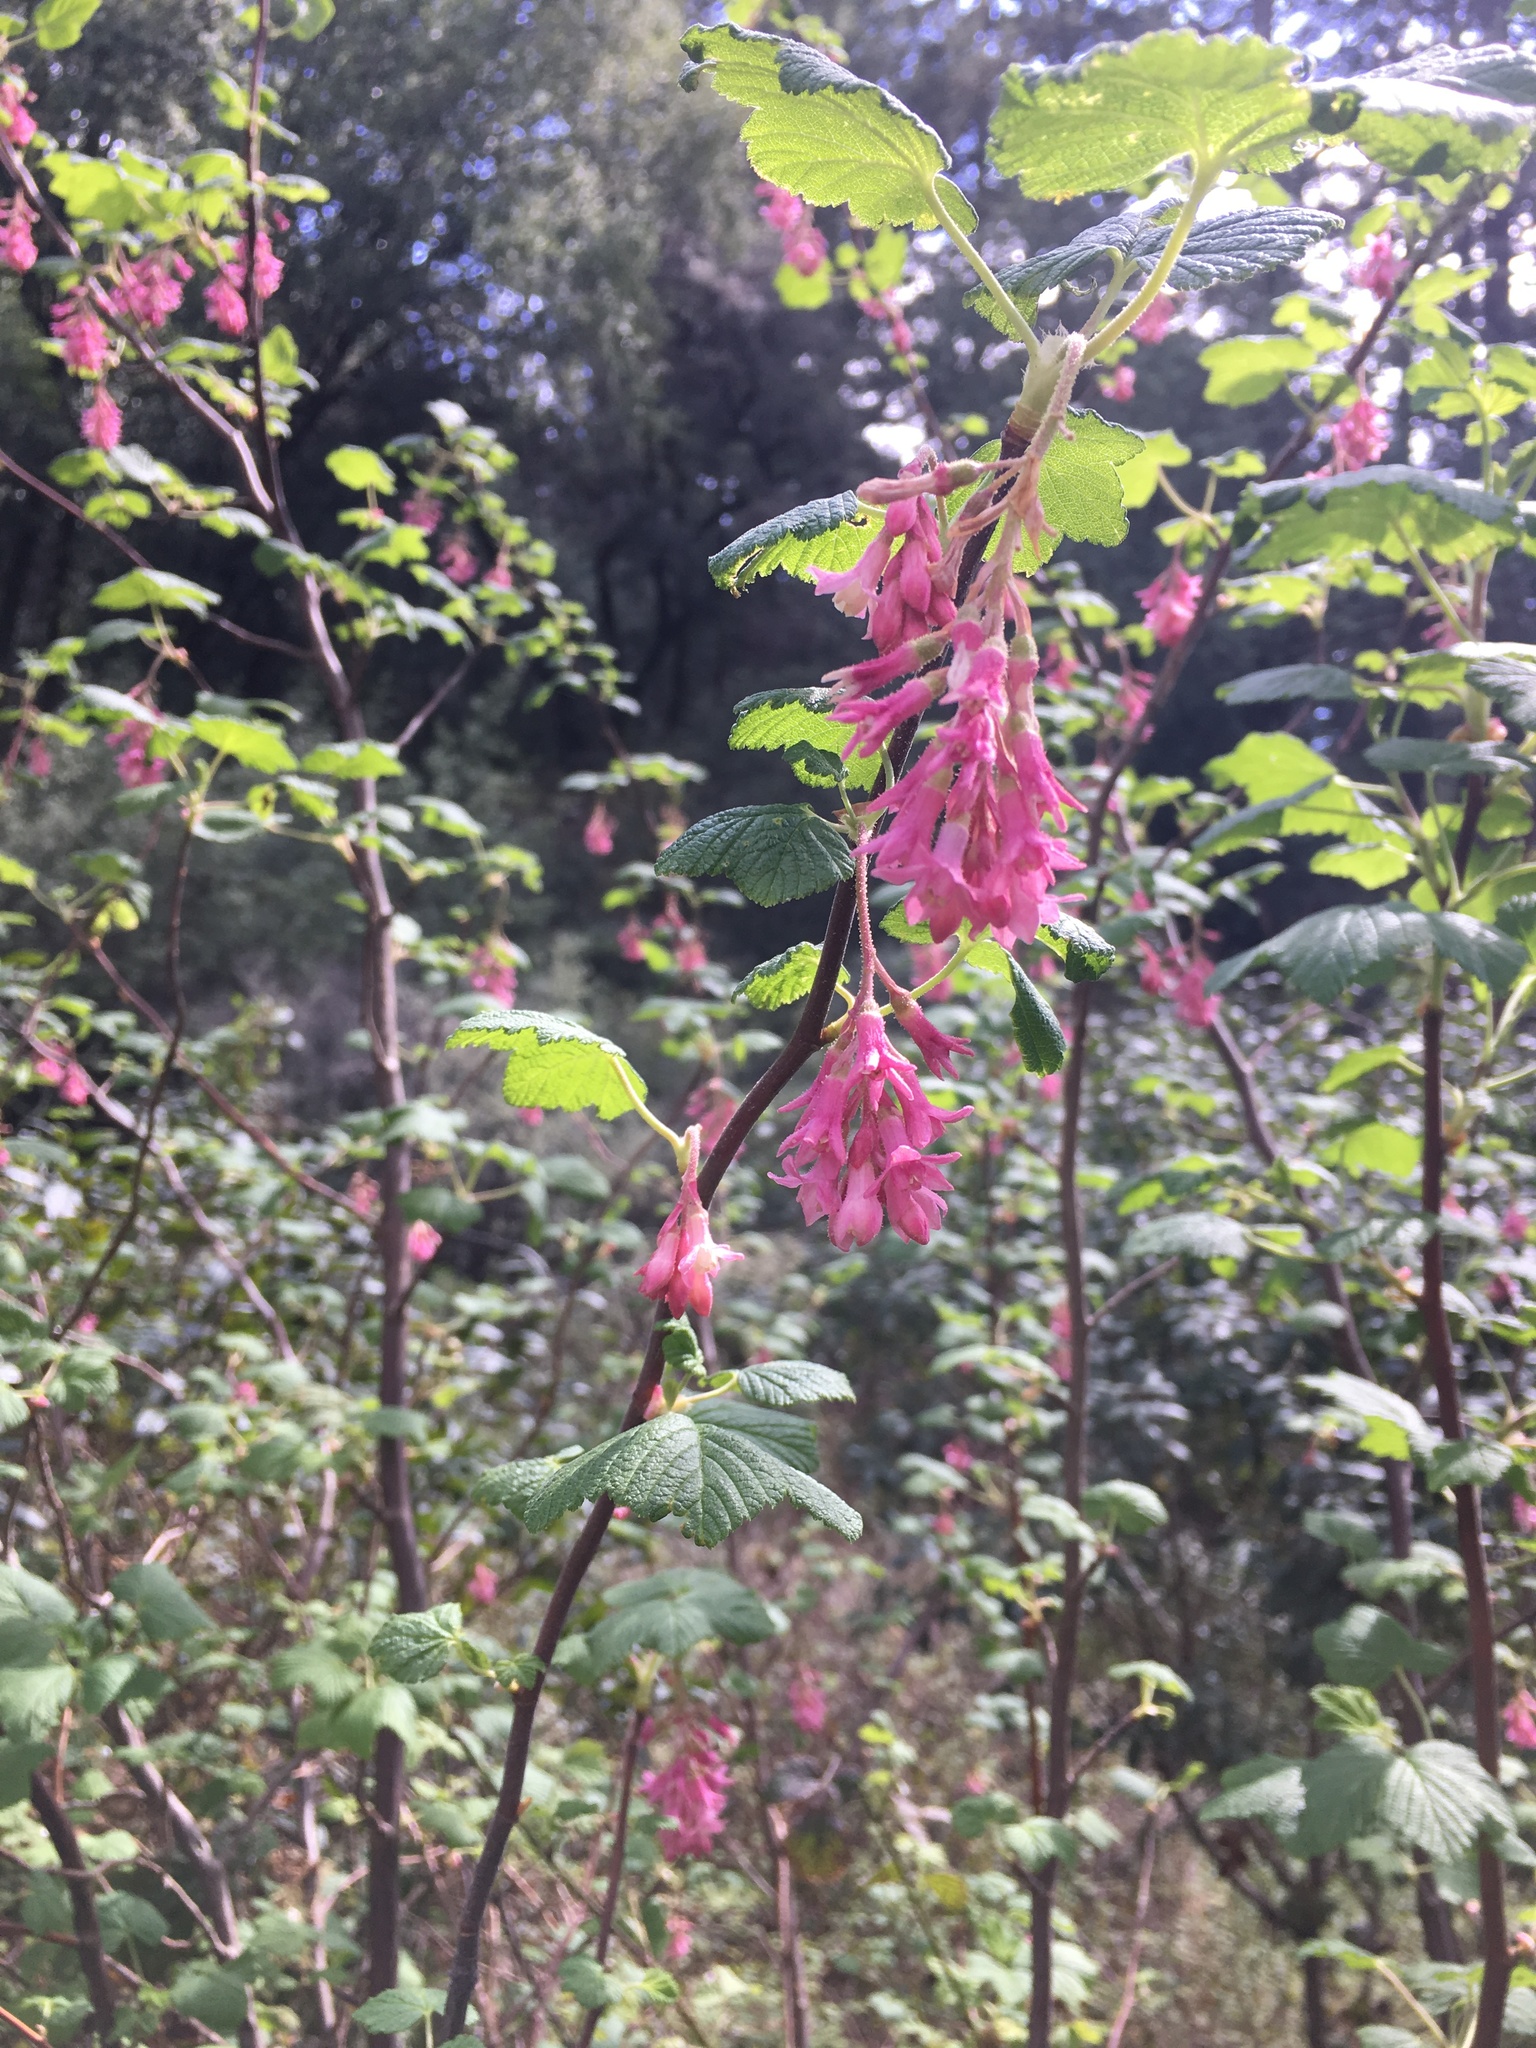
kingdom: Plantae
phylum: Tracheophyta
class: Magnoliopsida
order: Saxifragales
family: Grossulariaceae
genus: Ribes
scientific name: Ribes sanguineum
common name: Flowering currant
